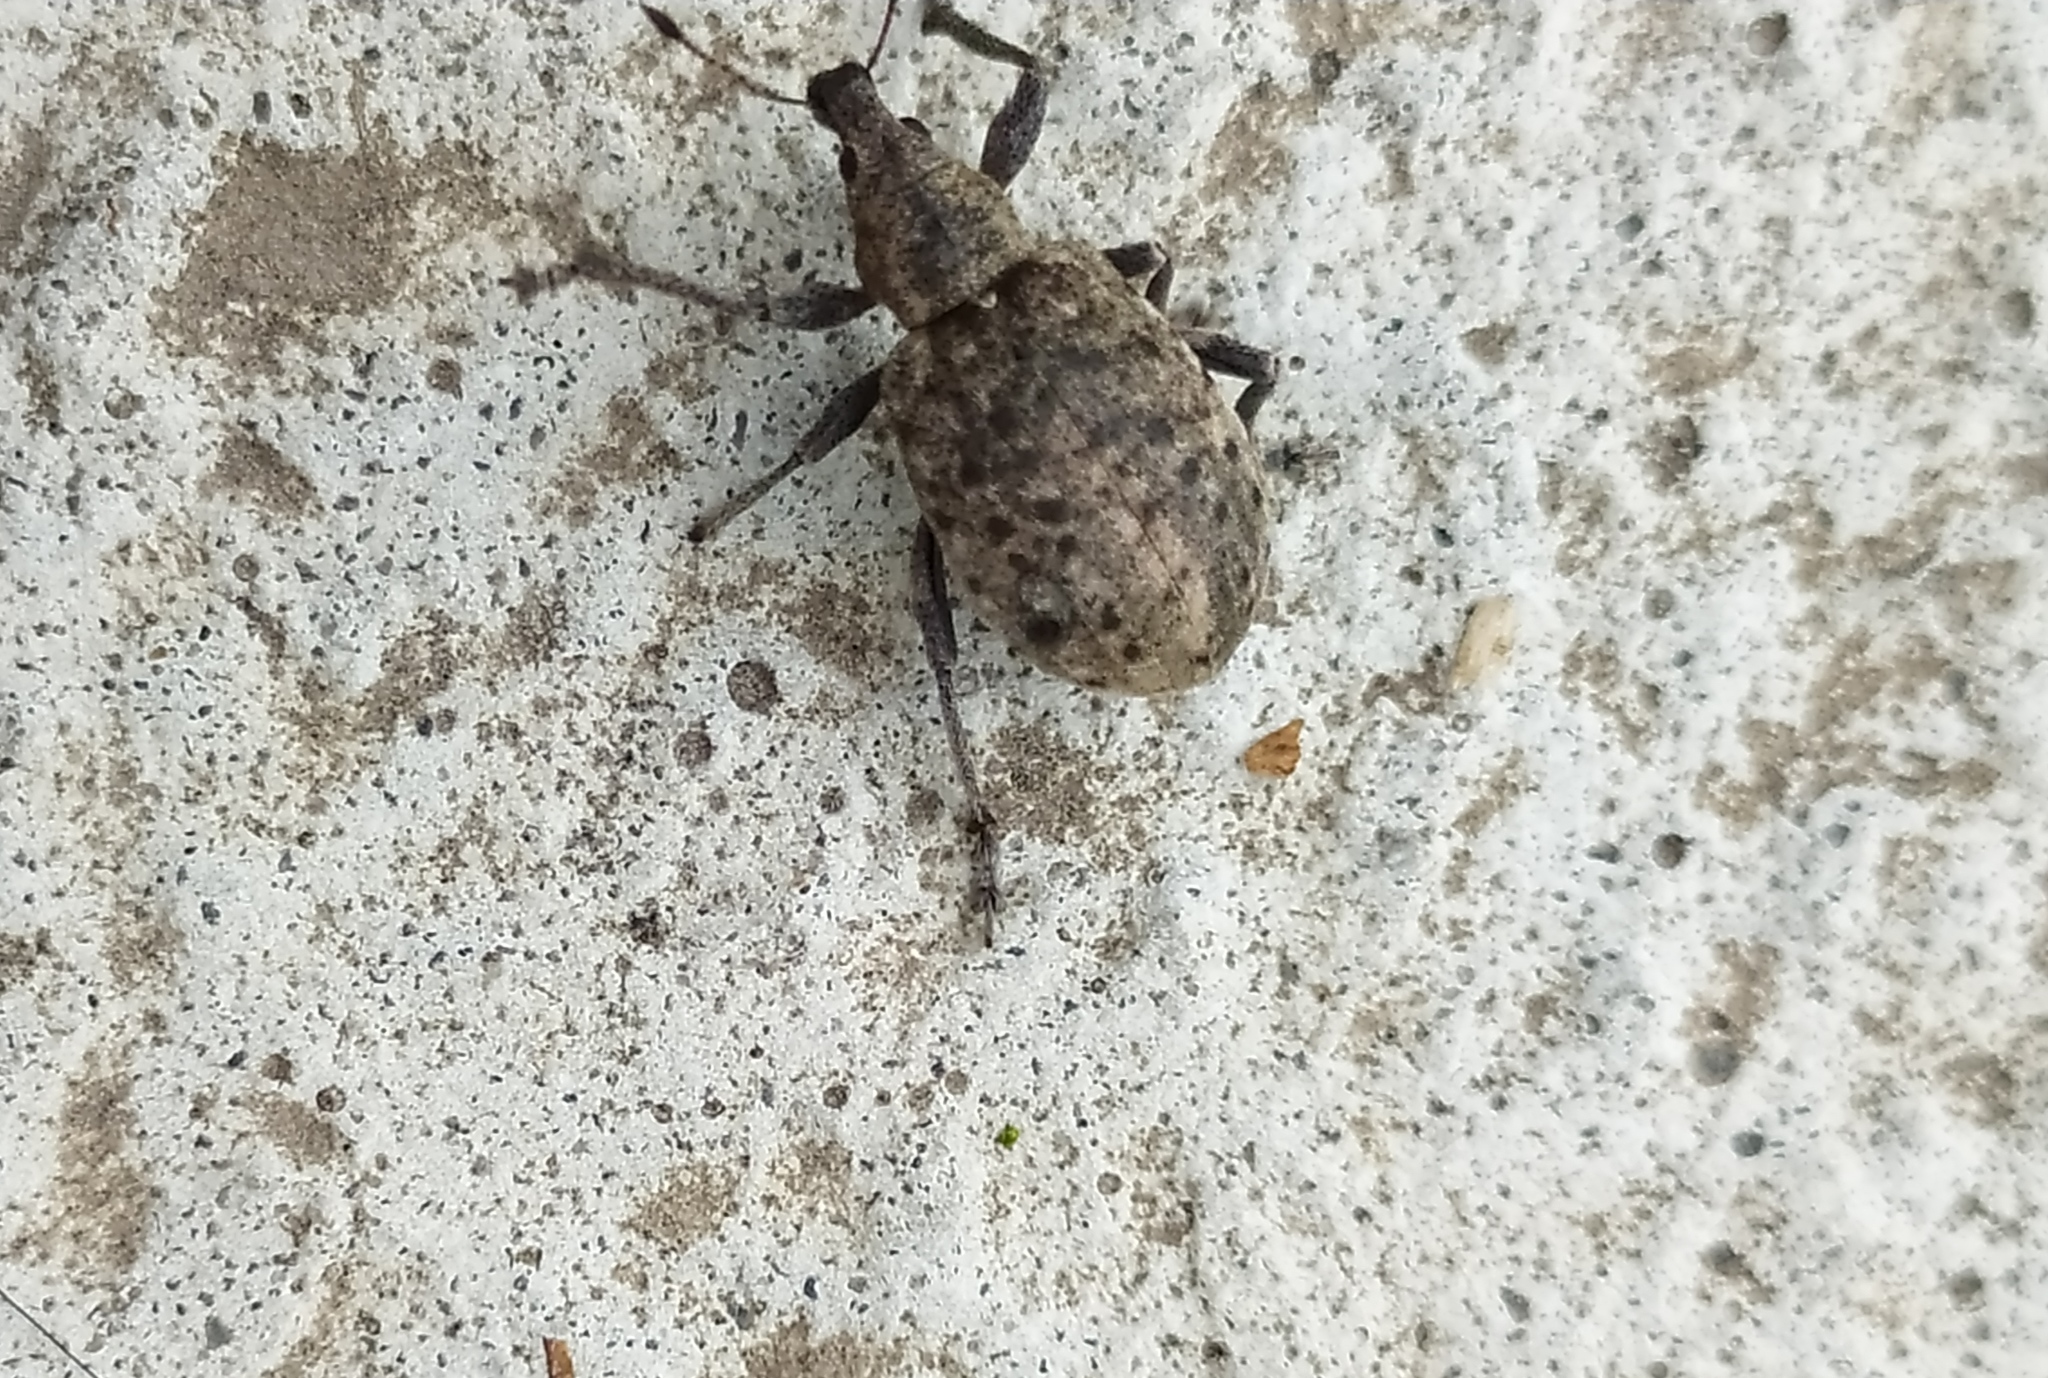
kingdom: Animalia
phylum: Arthropoda
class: Insecta
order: Coleoptera
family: Curculionidae
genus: Liophloeus
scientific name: Liophloeus tessulatus
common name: Weevil
